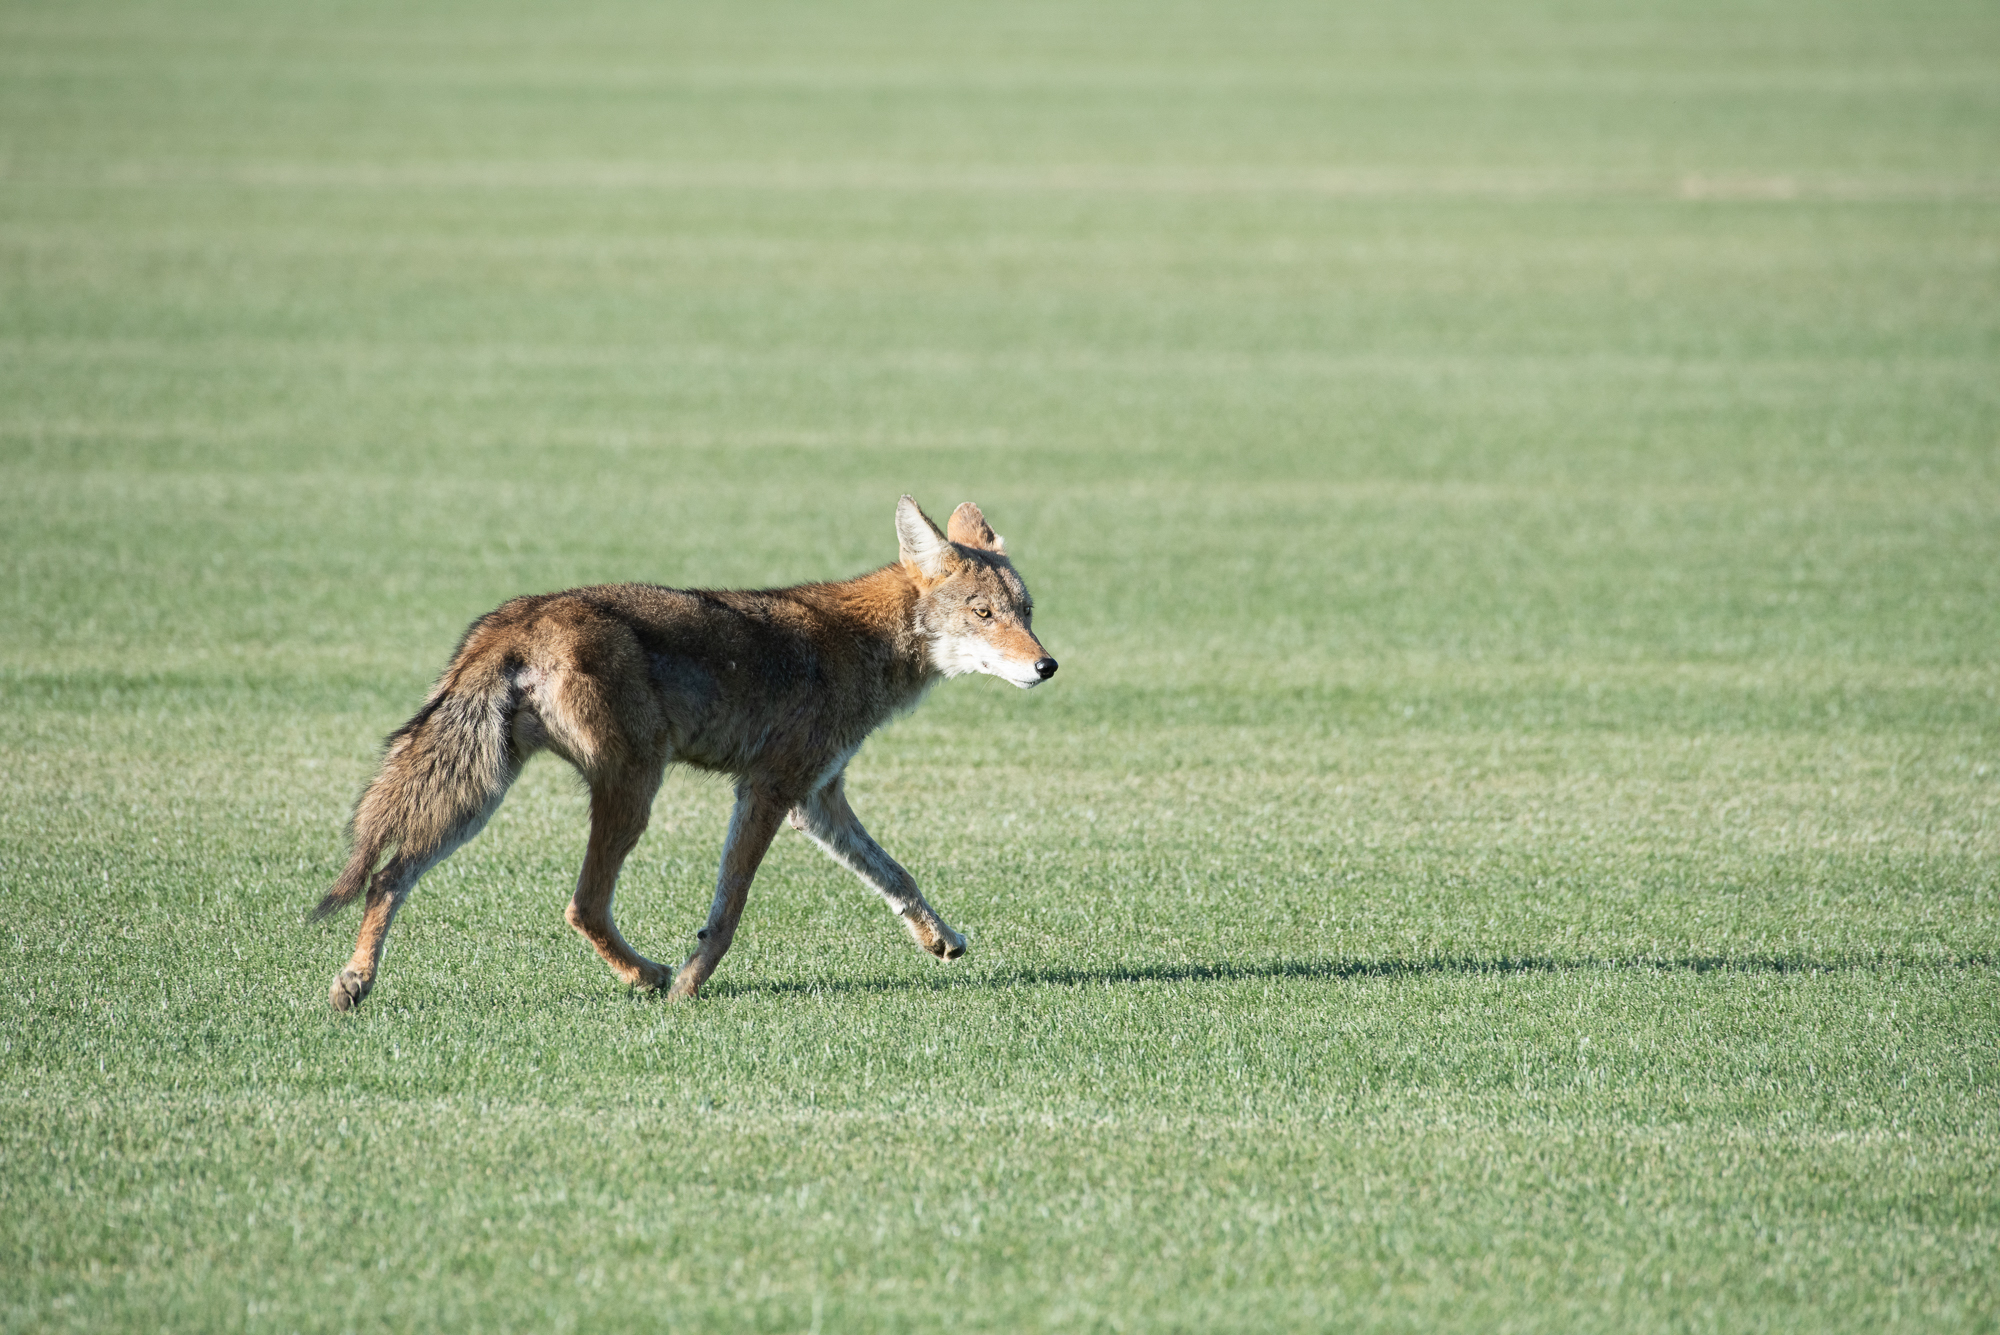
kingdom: Animalia
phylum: Chordata
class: Mammalia
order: Carnivora
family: Canidae
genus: Canis
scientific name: Canis latrans
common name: Coyote
